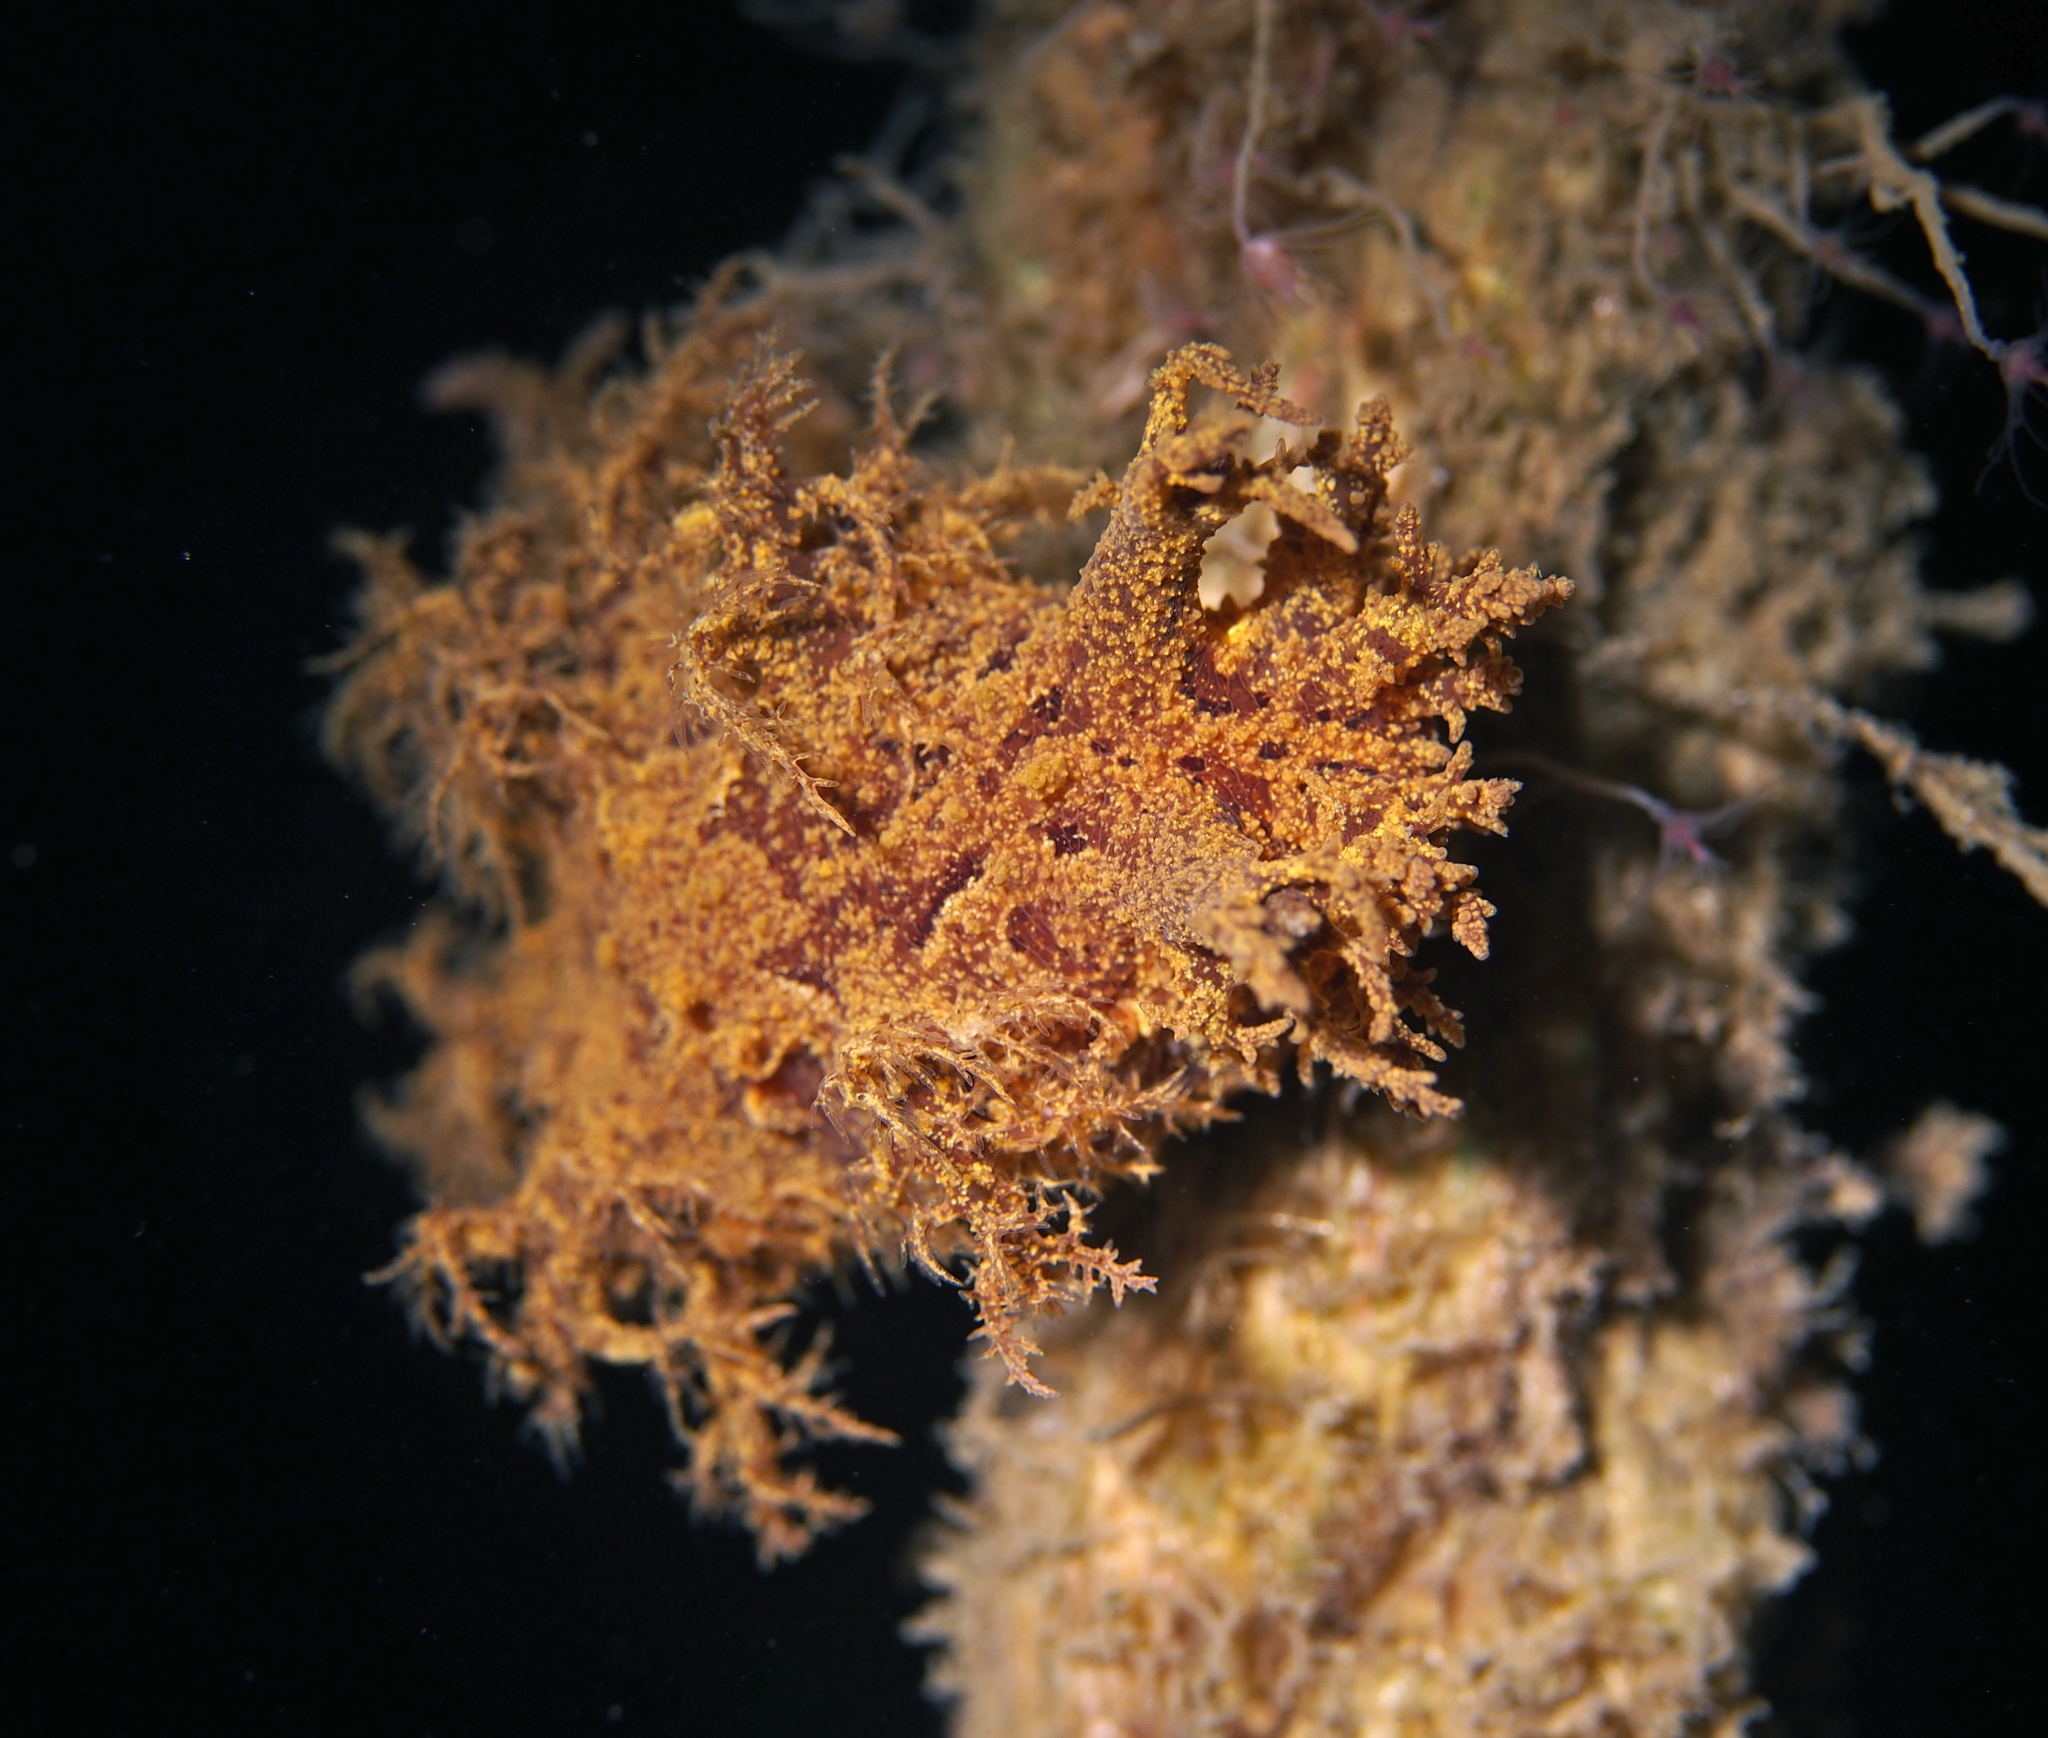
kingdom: Animalia
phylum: Mollusca
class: Gastropoda
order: Nudibranchia
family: Dendronotidae
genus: Dendronotus
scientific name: Dendronotus europaeus
